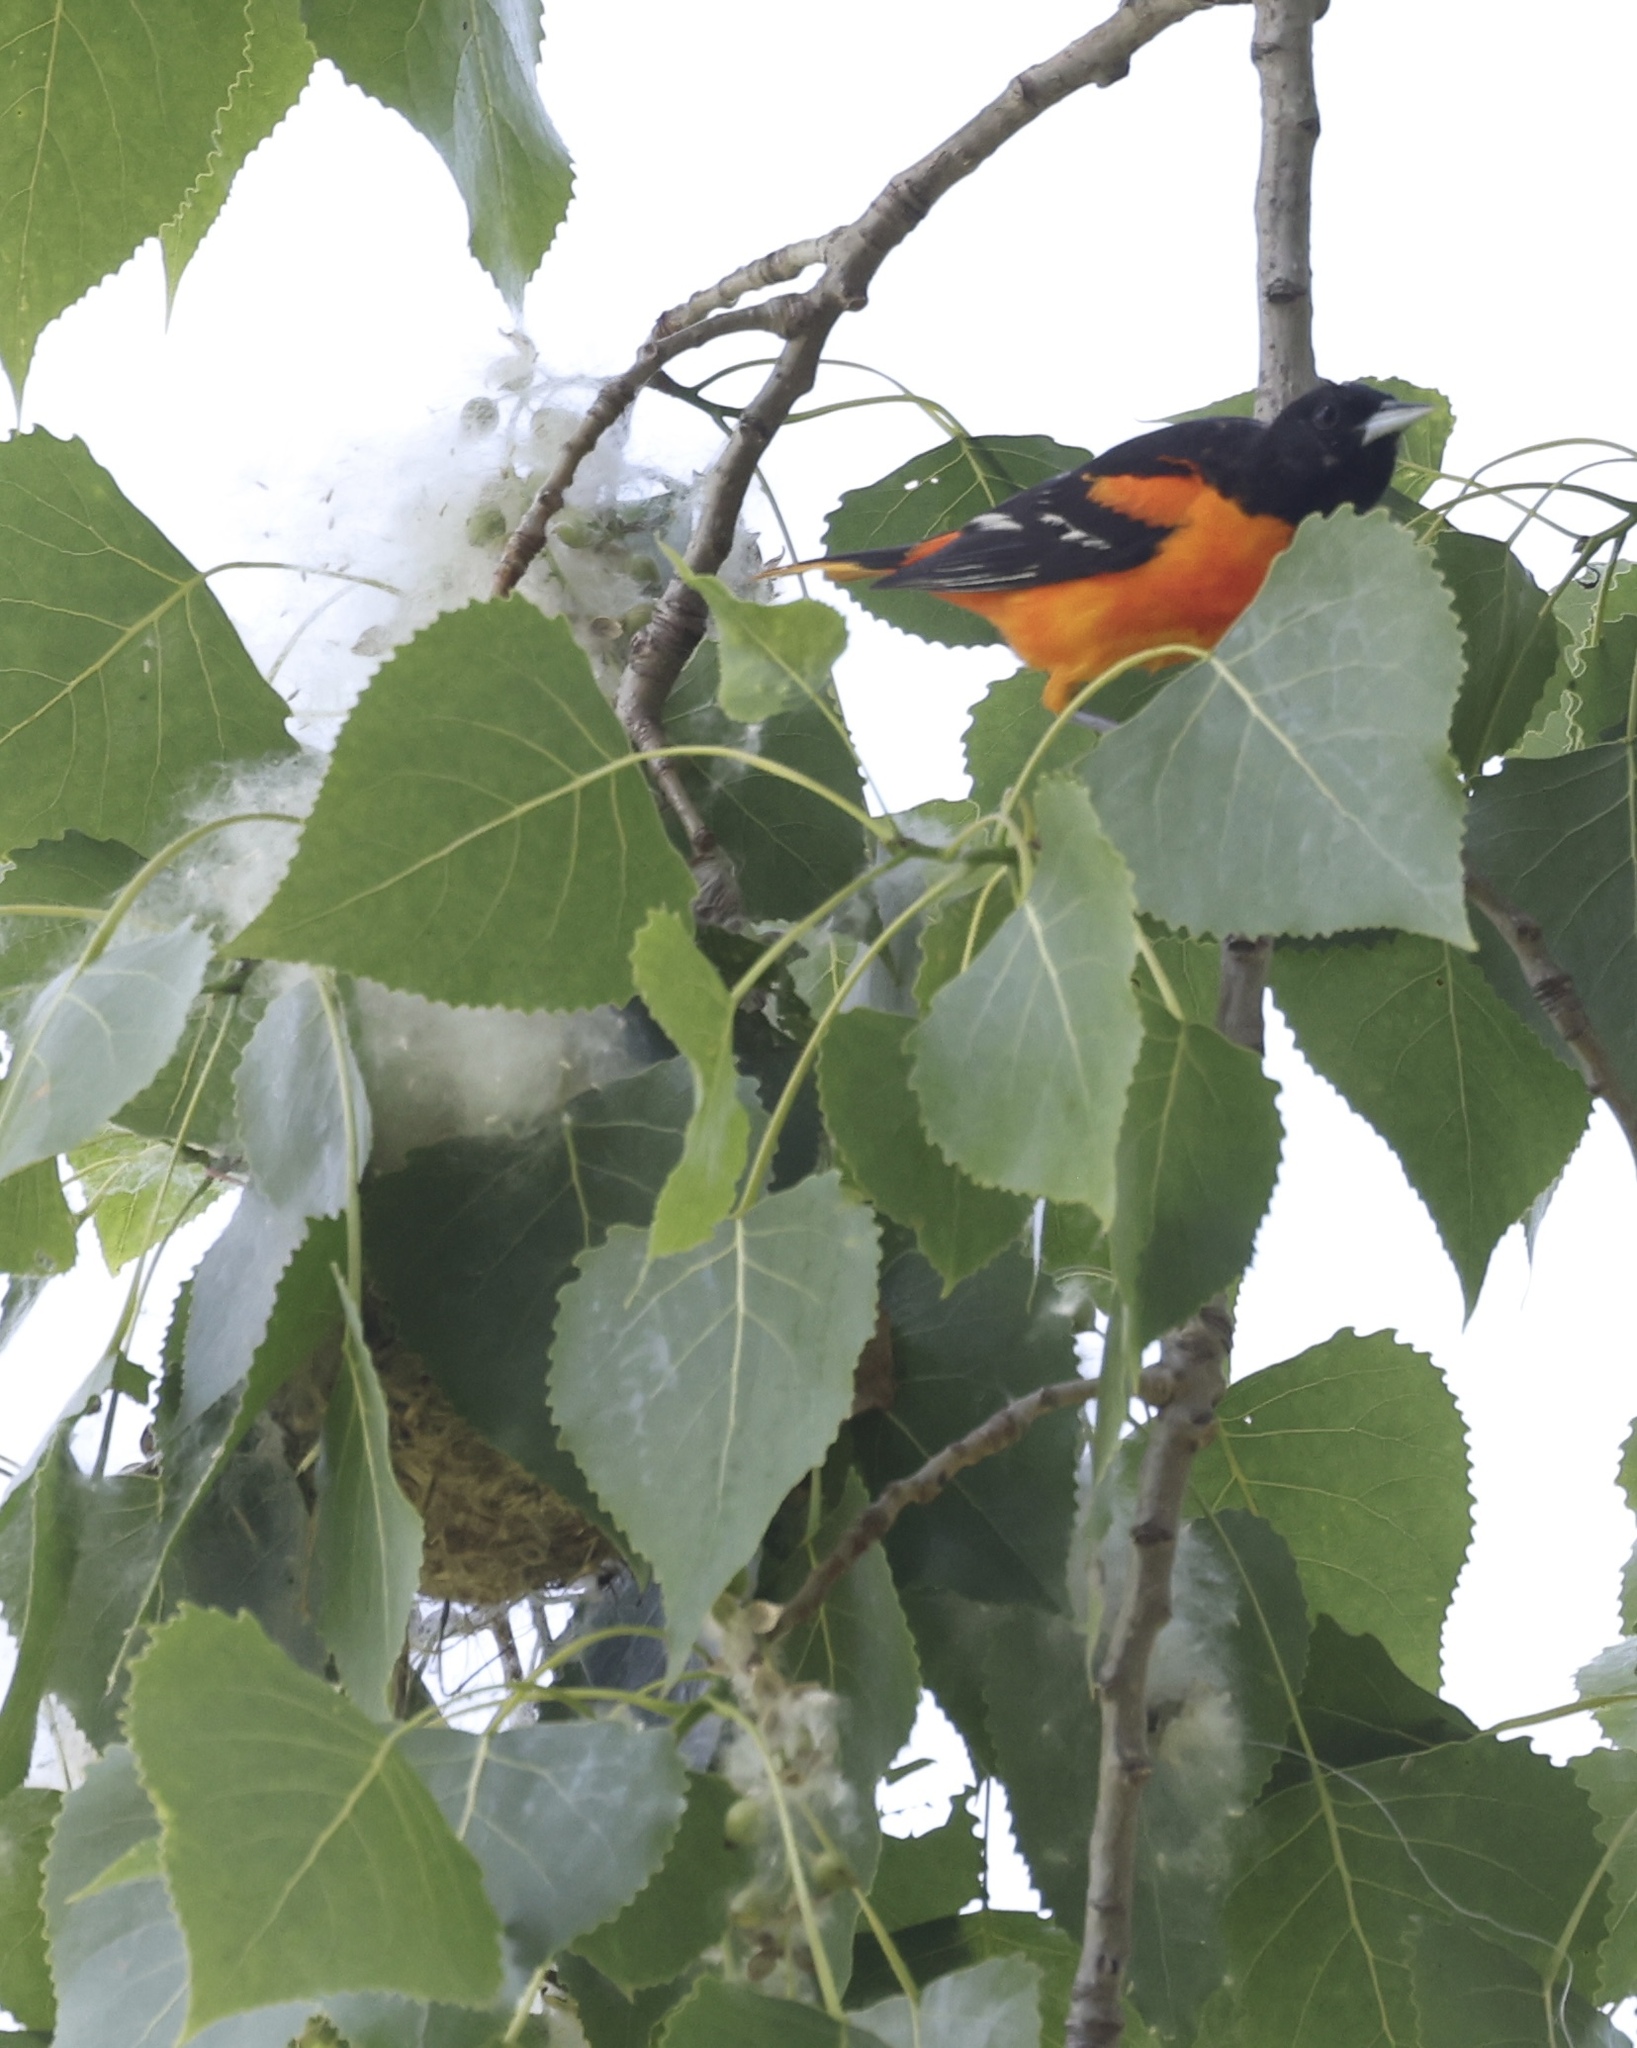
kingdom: Animalia
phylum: Chordata
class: Aves
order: Passeriformes
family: Icteridae
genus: Icterus
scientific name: Icterus galbula
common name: Baltimore oriole
